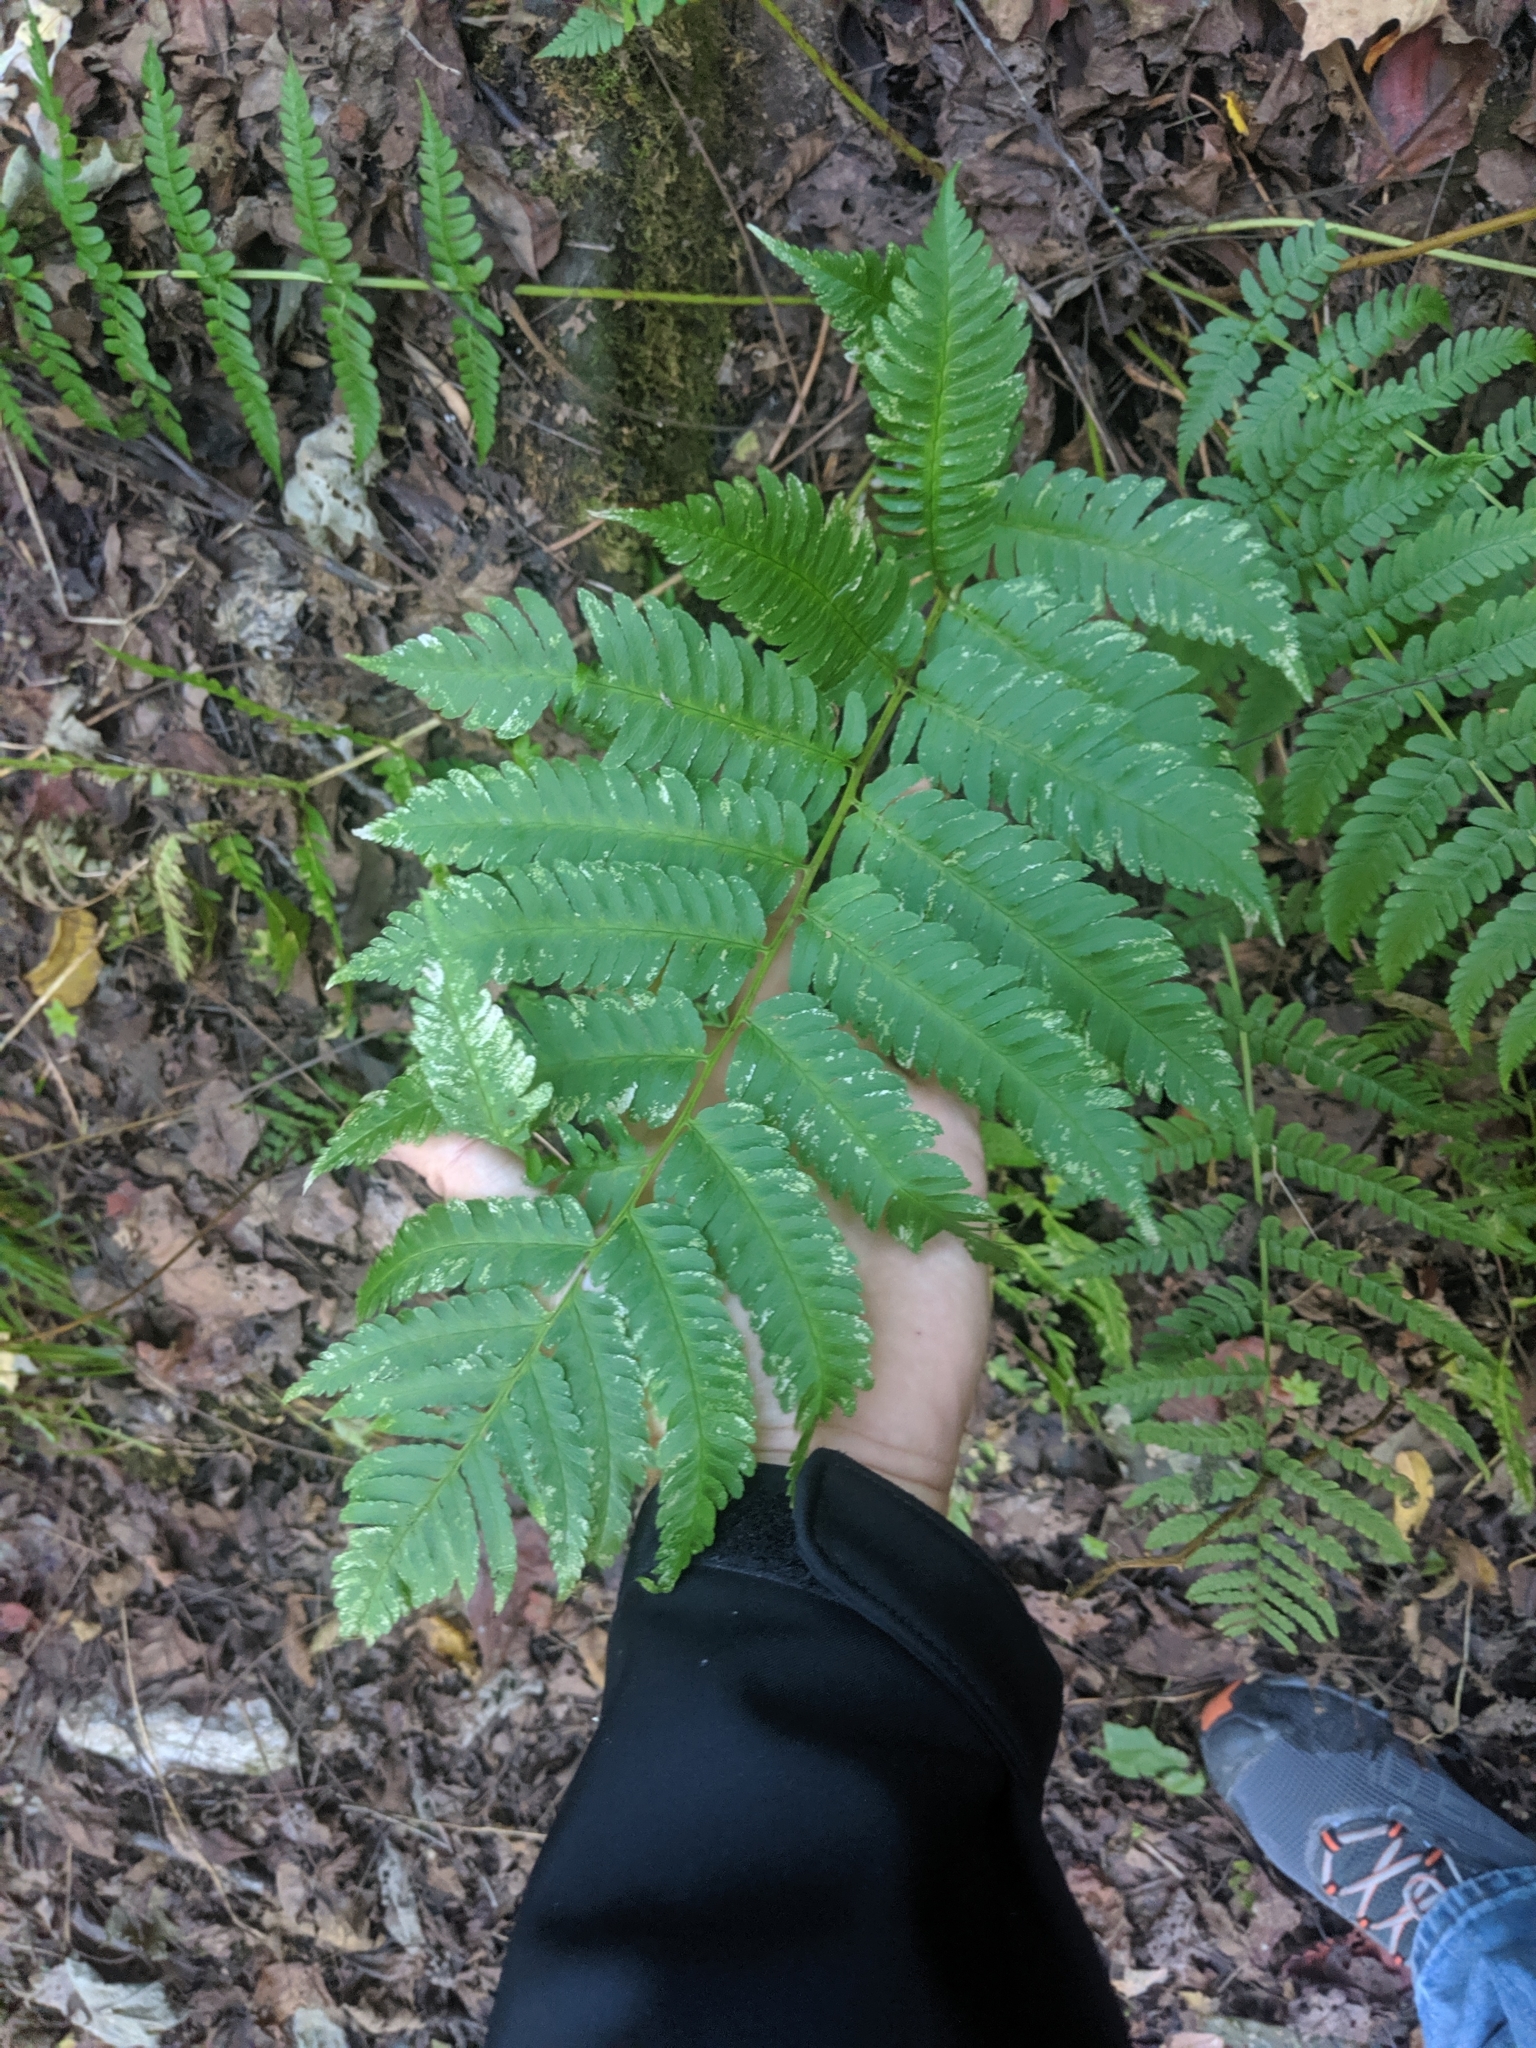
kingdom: Plantae
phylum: Tracheophyta
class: Polypodiopsida
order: Polypodiales
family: Dryopteridaceae
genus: Dryopteris
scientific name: Dryopteris goldieana
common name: Goldie's fern
